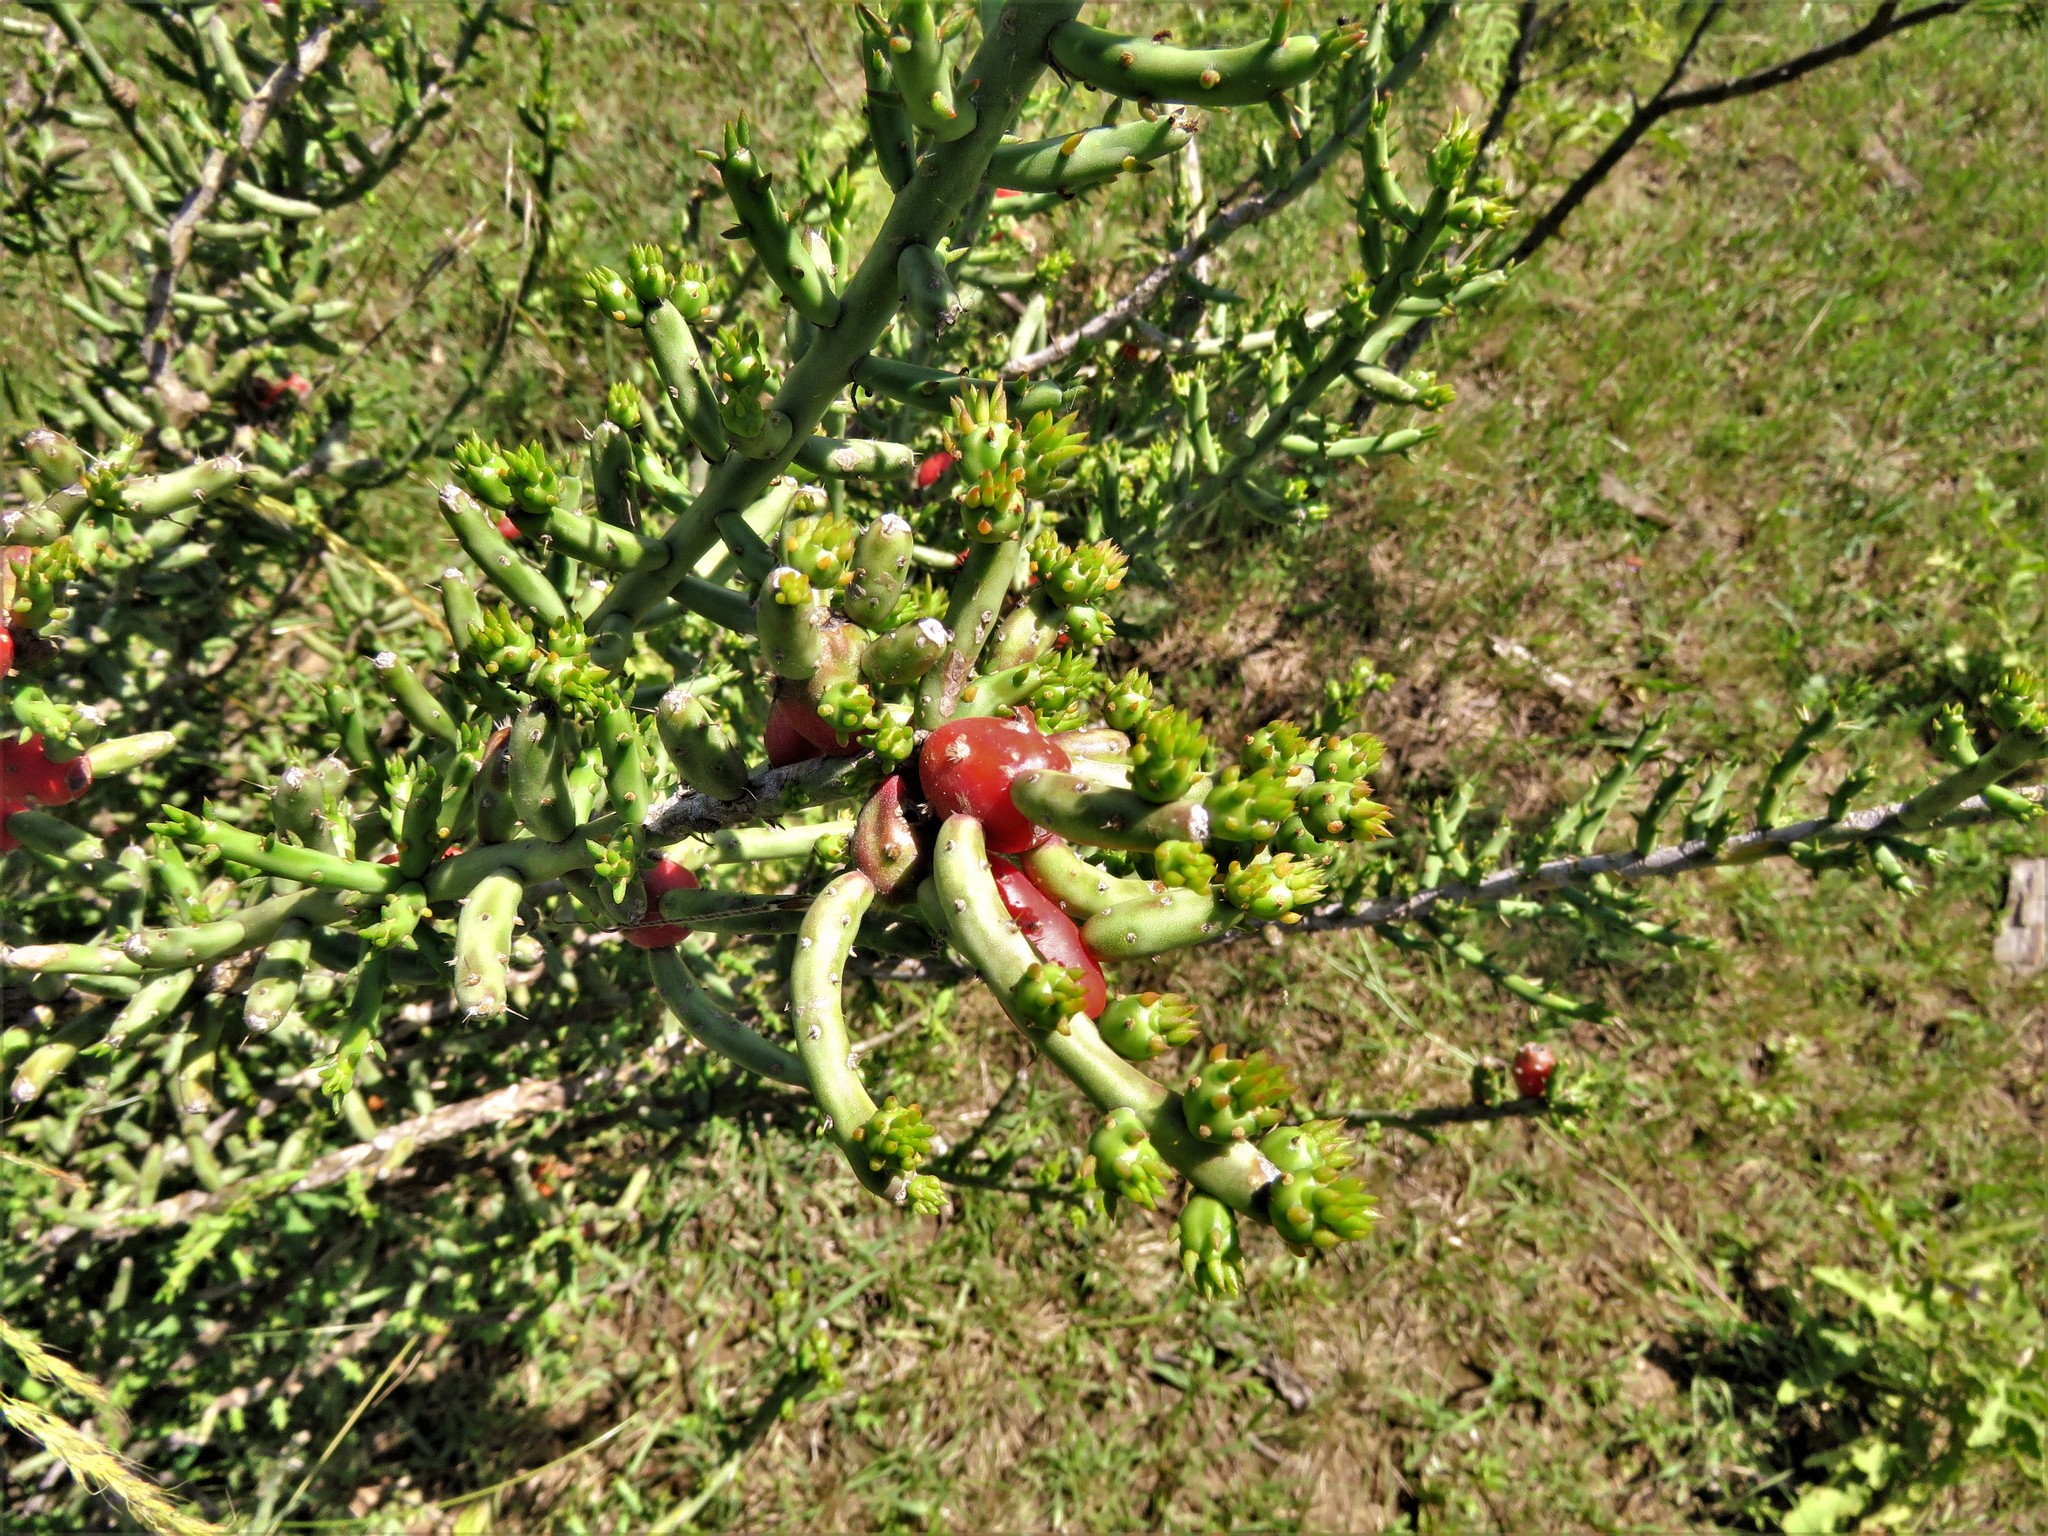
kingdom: Plantae
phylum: Tracheophyta
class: Magnoliopsida
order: Caryophyllales
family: Cactaceae
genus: Cylindropuntia
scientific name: Cylindropuntia leptocaulis
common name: Christmas cactus
